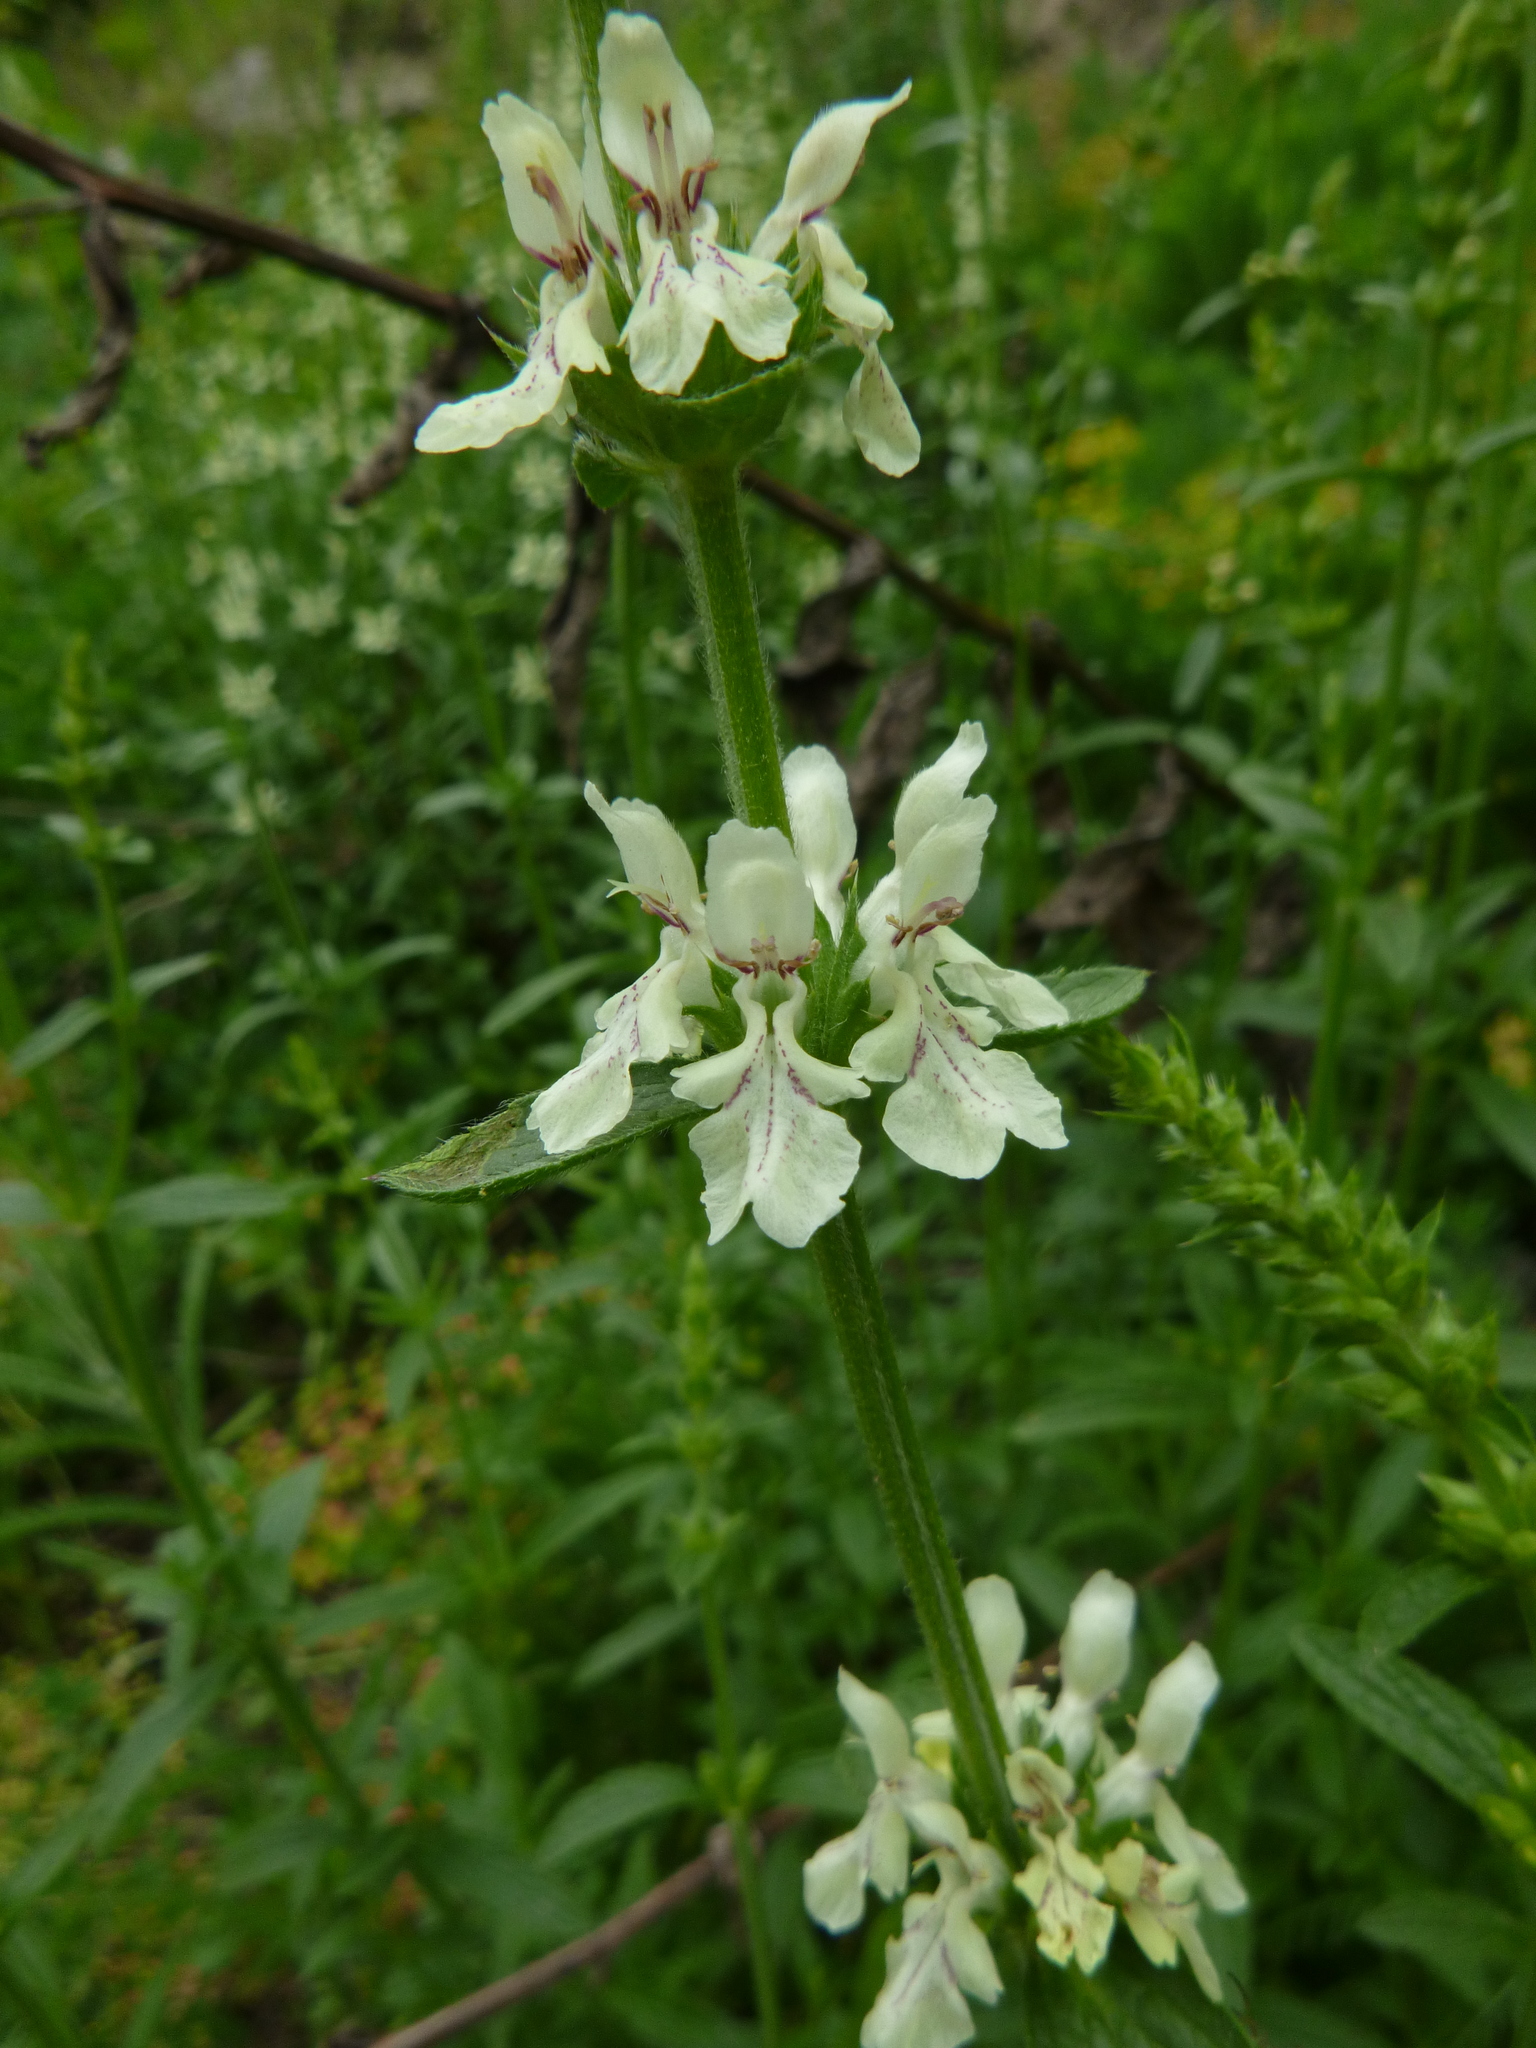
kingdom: Plantae
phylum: Tracheophyta
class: Magnoliopsida
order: Lamiales
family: Lamiaceae
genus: Stachys
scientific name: Stachys recta
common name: Perennial yellow-woundwort
